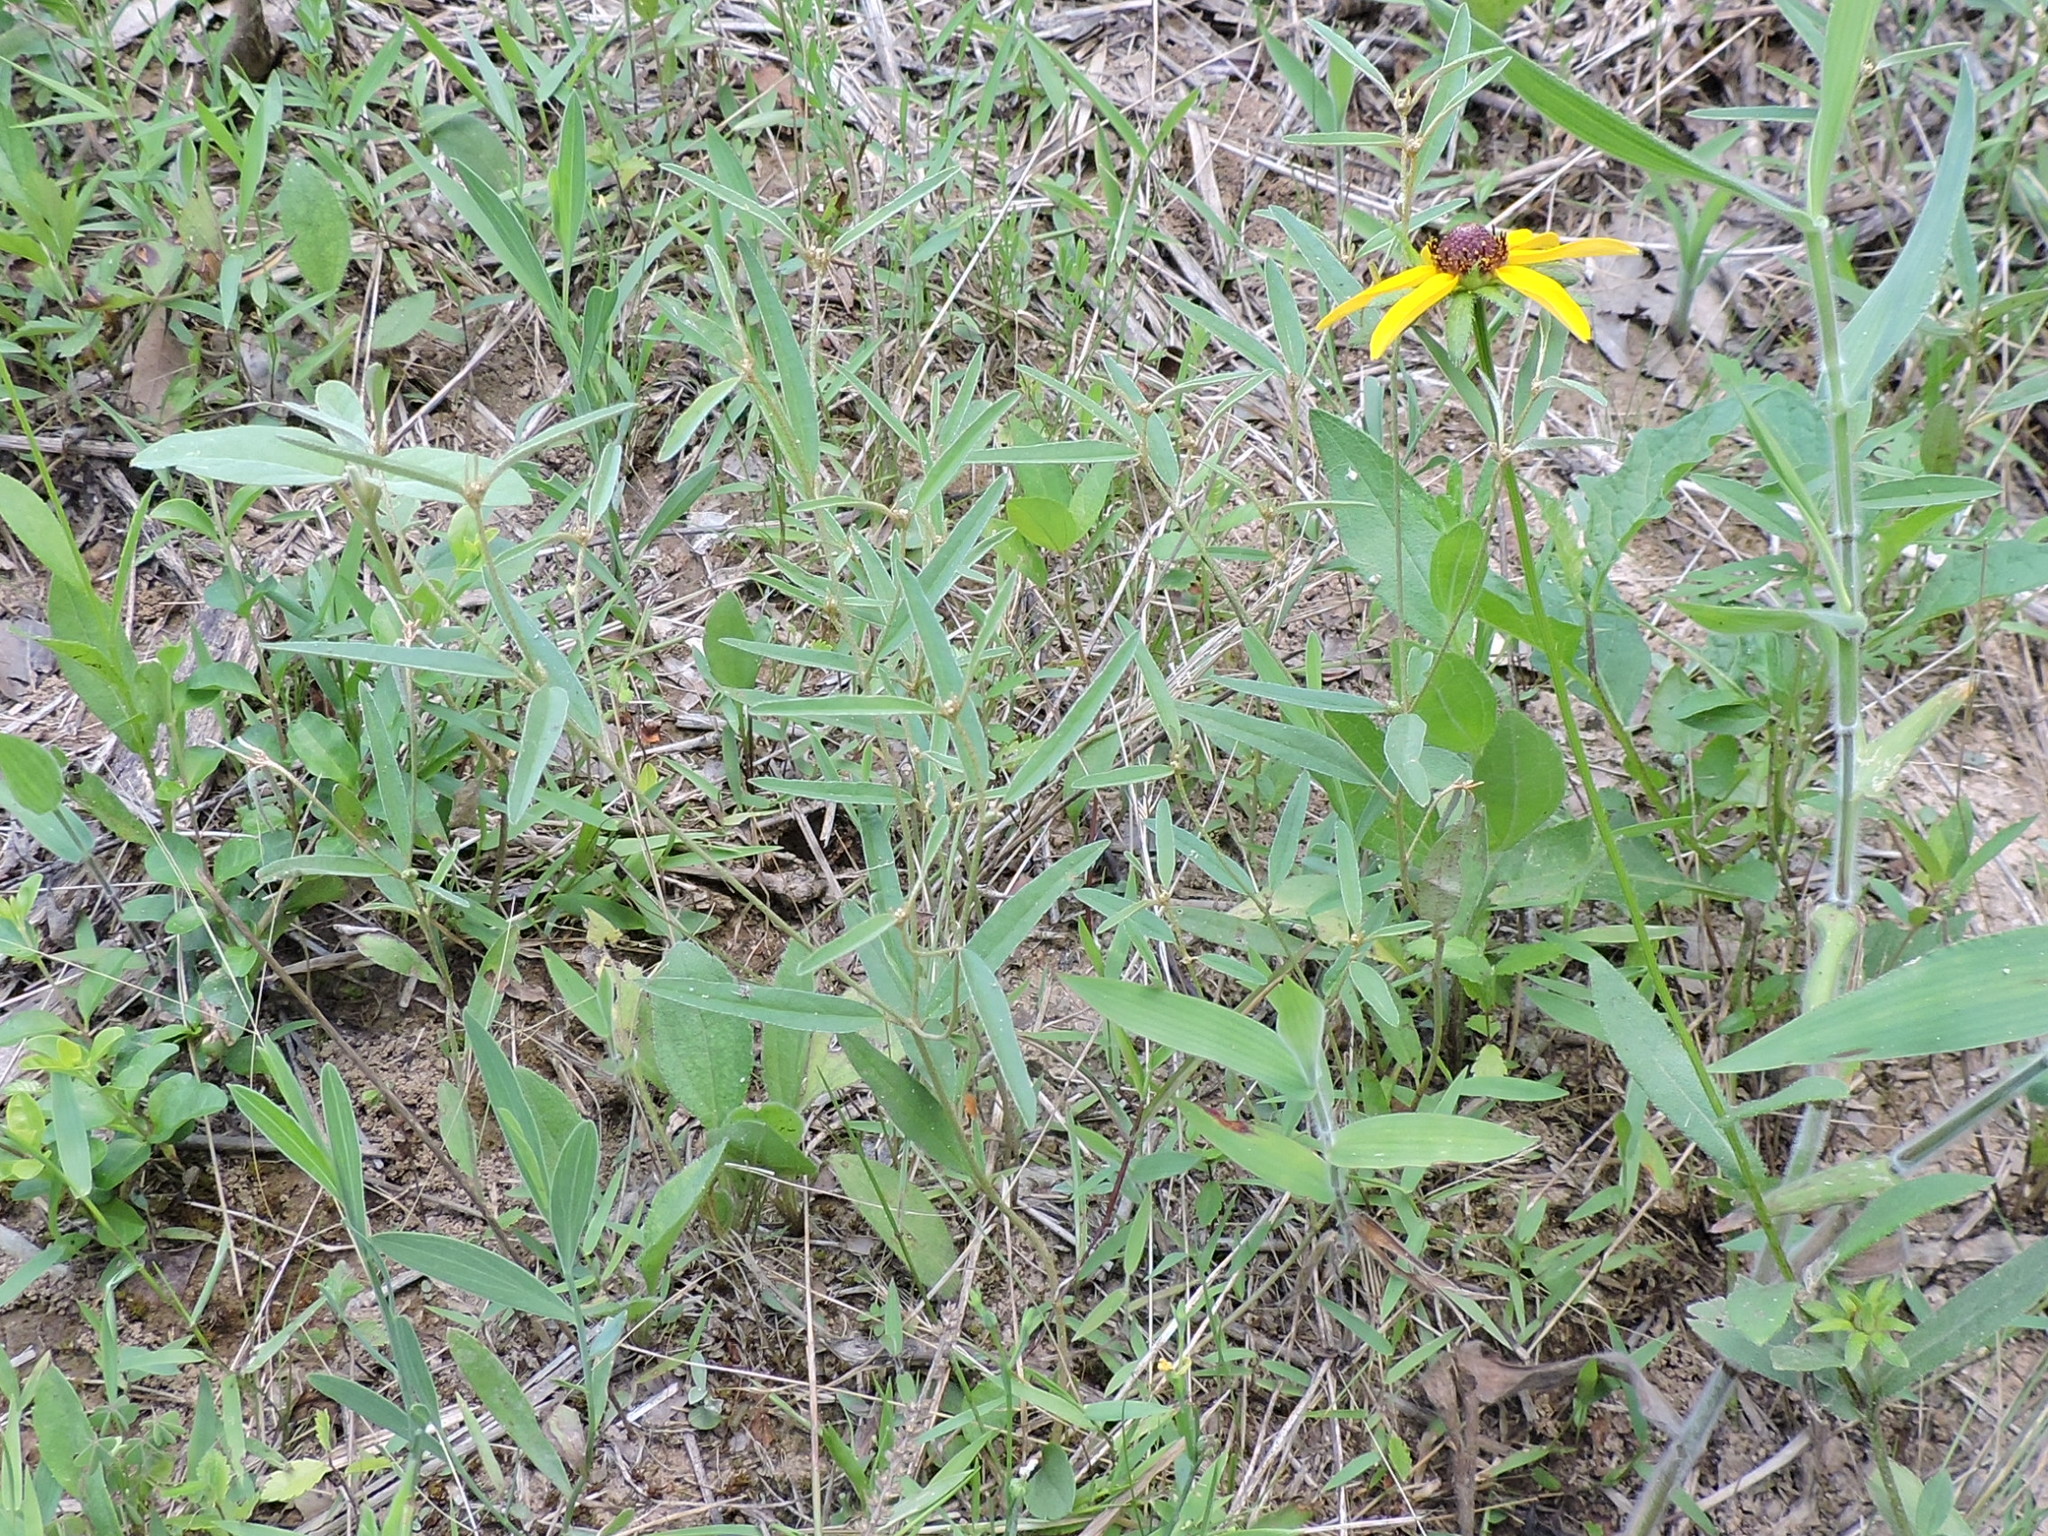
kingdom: Plantae
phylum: Tracheophyta
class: Magnoliopsida
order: Malpighiales
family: Euphorbiaceae
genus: Croton
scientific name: Croton michauxii
